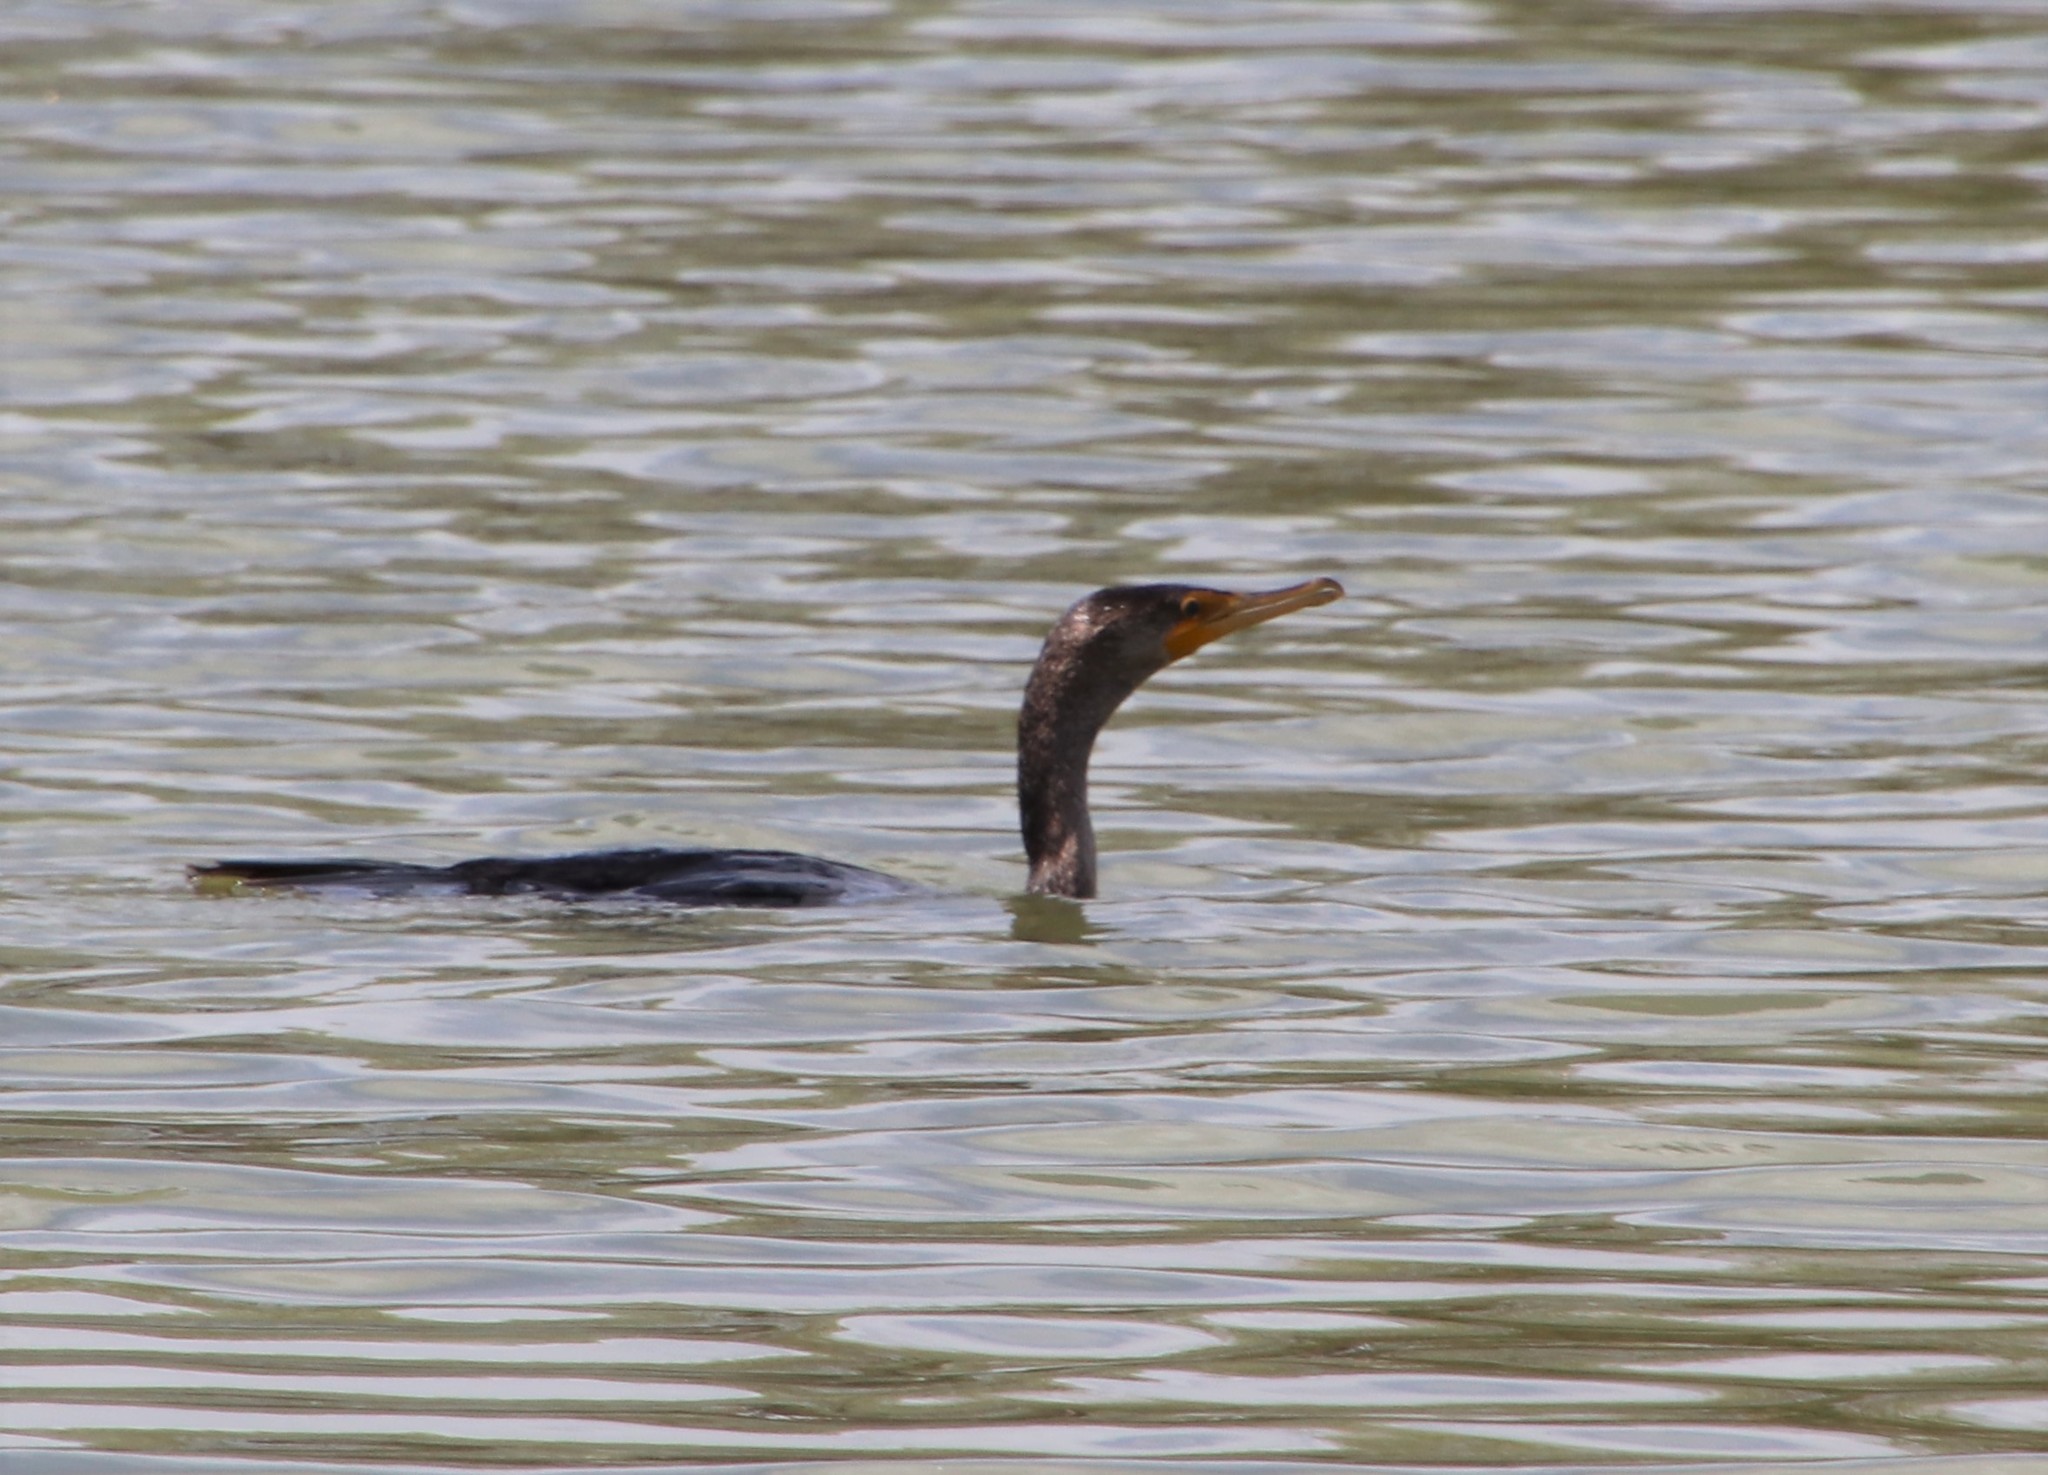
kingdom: Animalia
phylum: Chordata
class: Aves
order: Suliformes
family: Phalacrocoracidae
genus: Phalacrocorax
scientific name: Phalacrocorax auritus
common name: Double-crested cormorant
